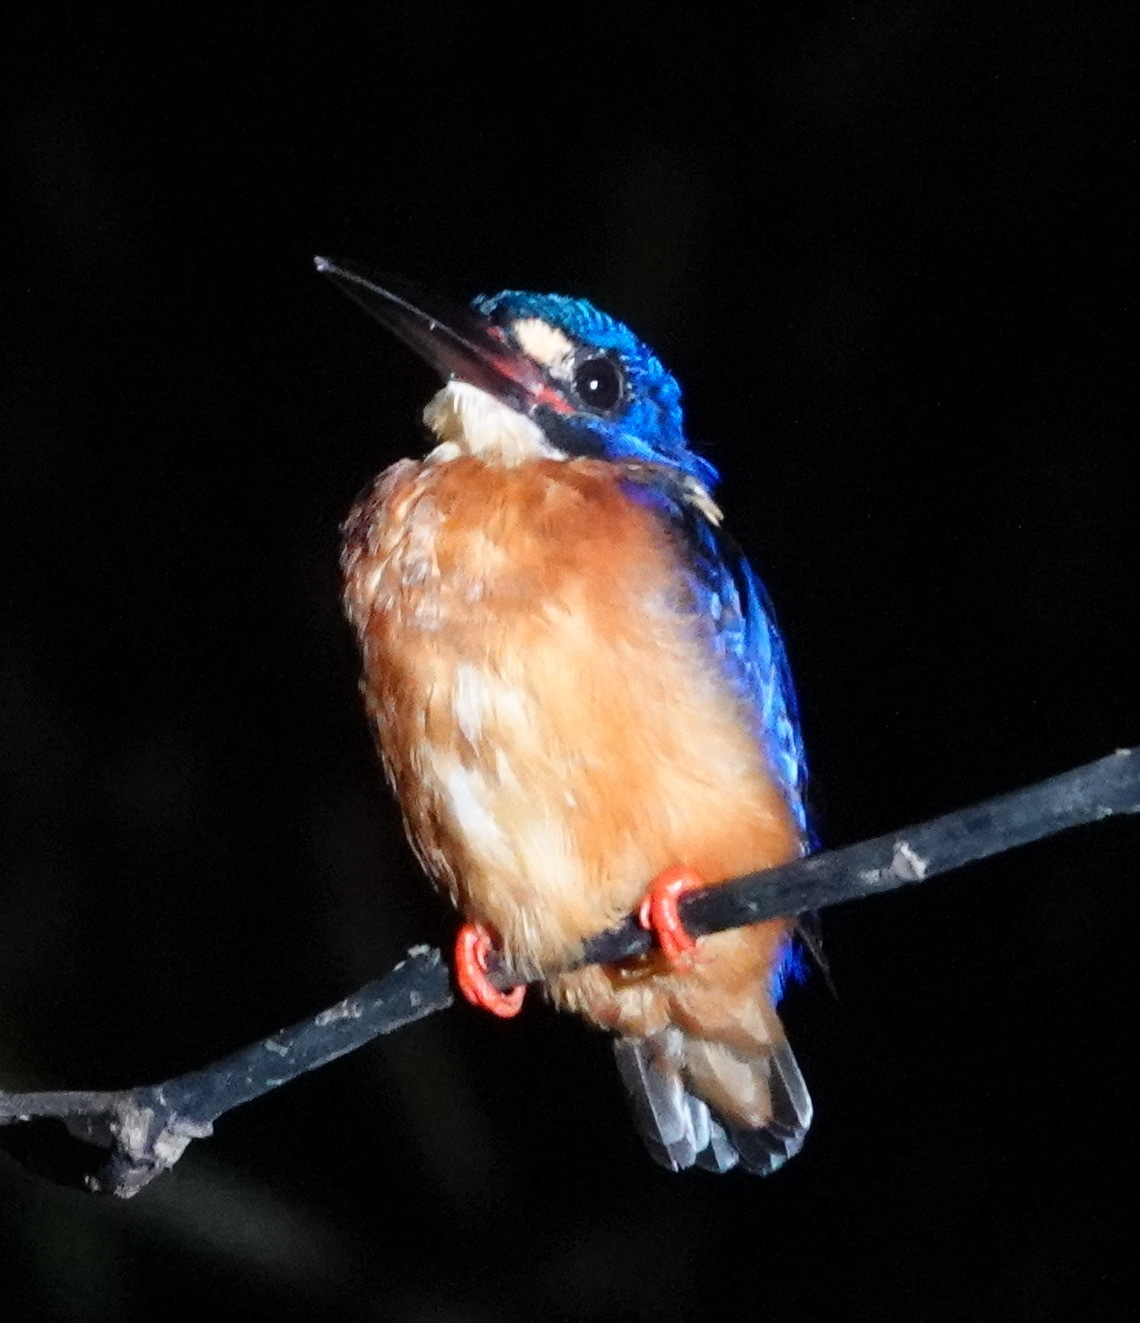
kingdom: Animalia
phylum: Chordata
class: Aves
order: Coraciiformes
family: Alcedinidae
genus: Alcedo
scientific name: Alcedo meninting
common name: Blue-eared kingfisher
